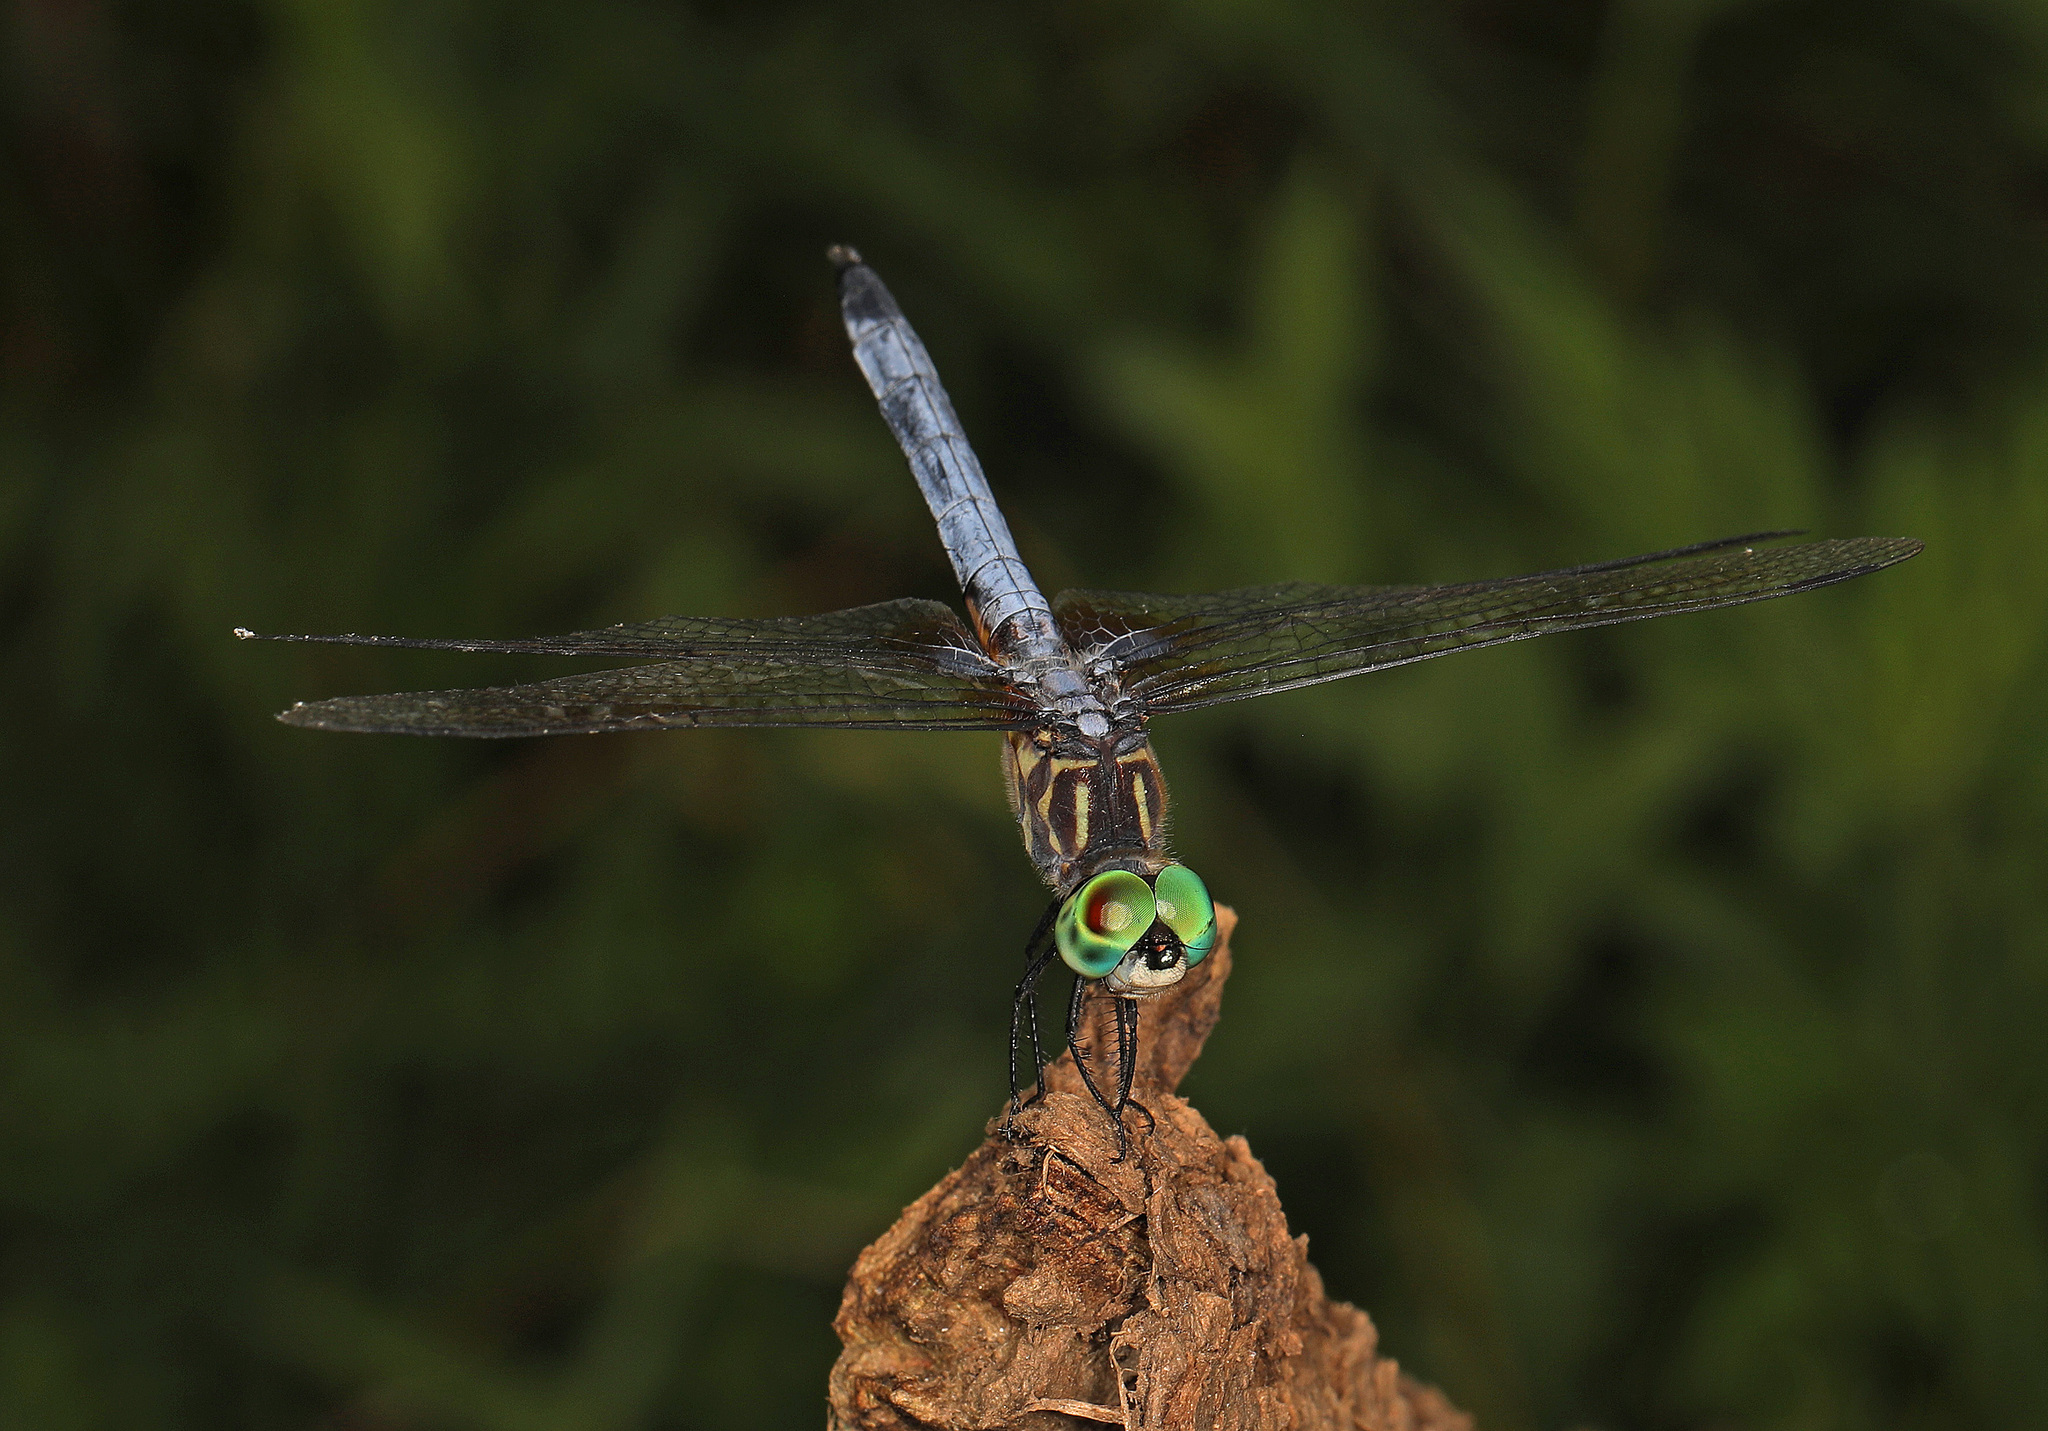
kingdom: Animalia
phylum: Arthropoda
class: Insecta
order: Odonata
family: Libellulidae
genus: Pachydiplax
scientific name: Pachydiplax longipennis
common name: Blue dasher
